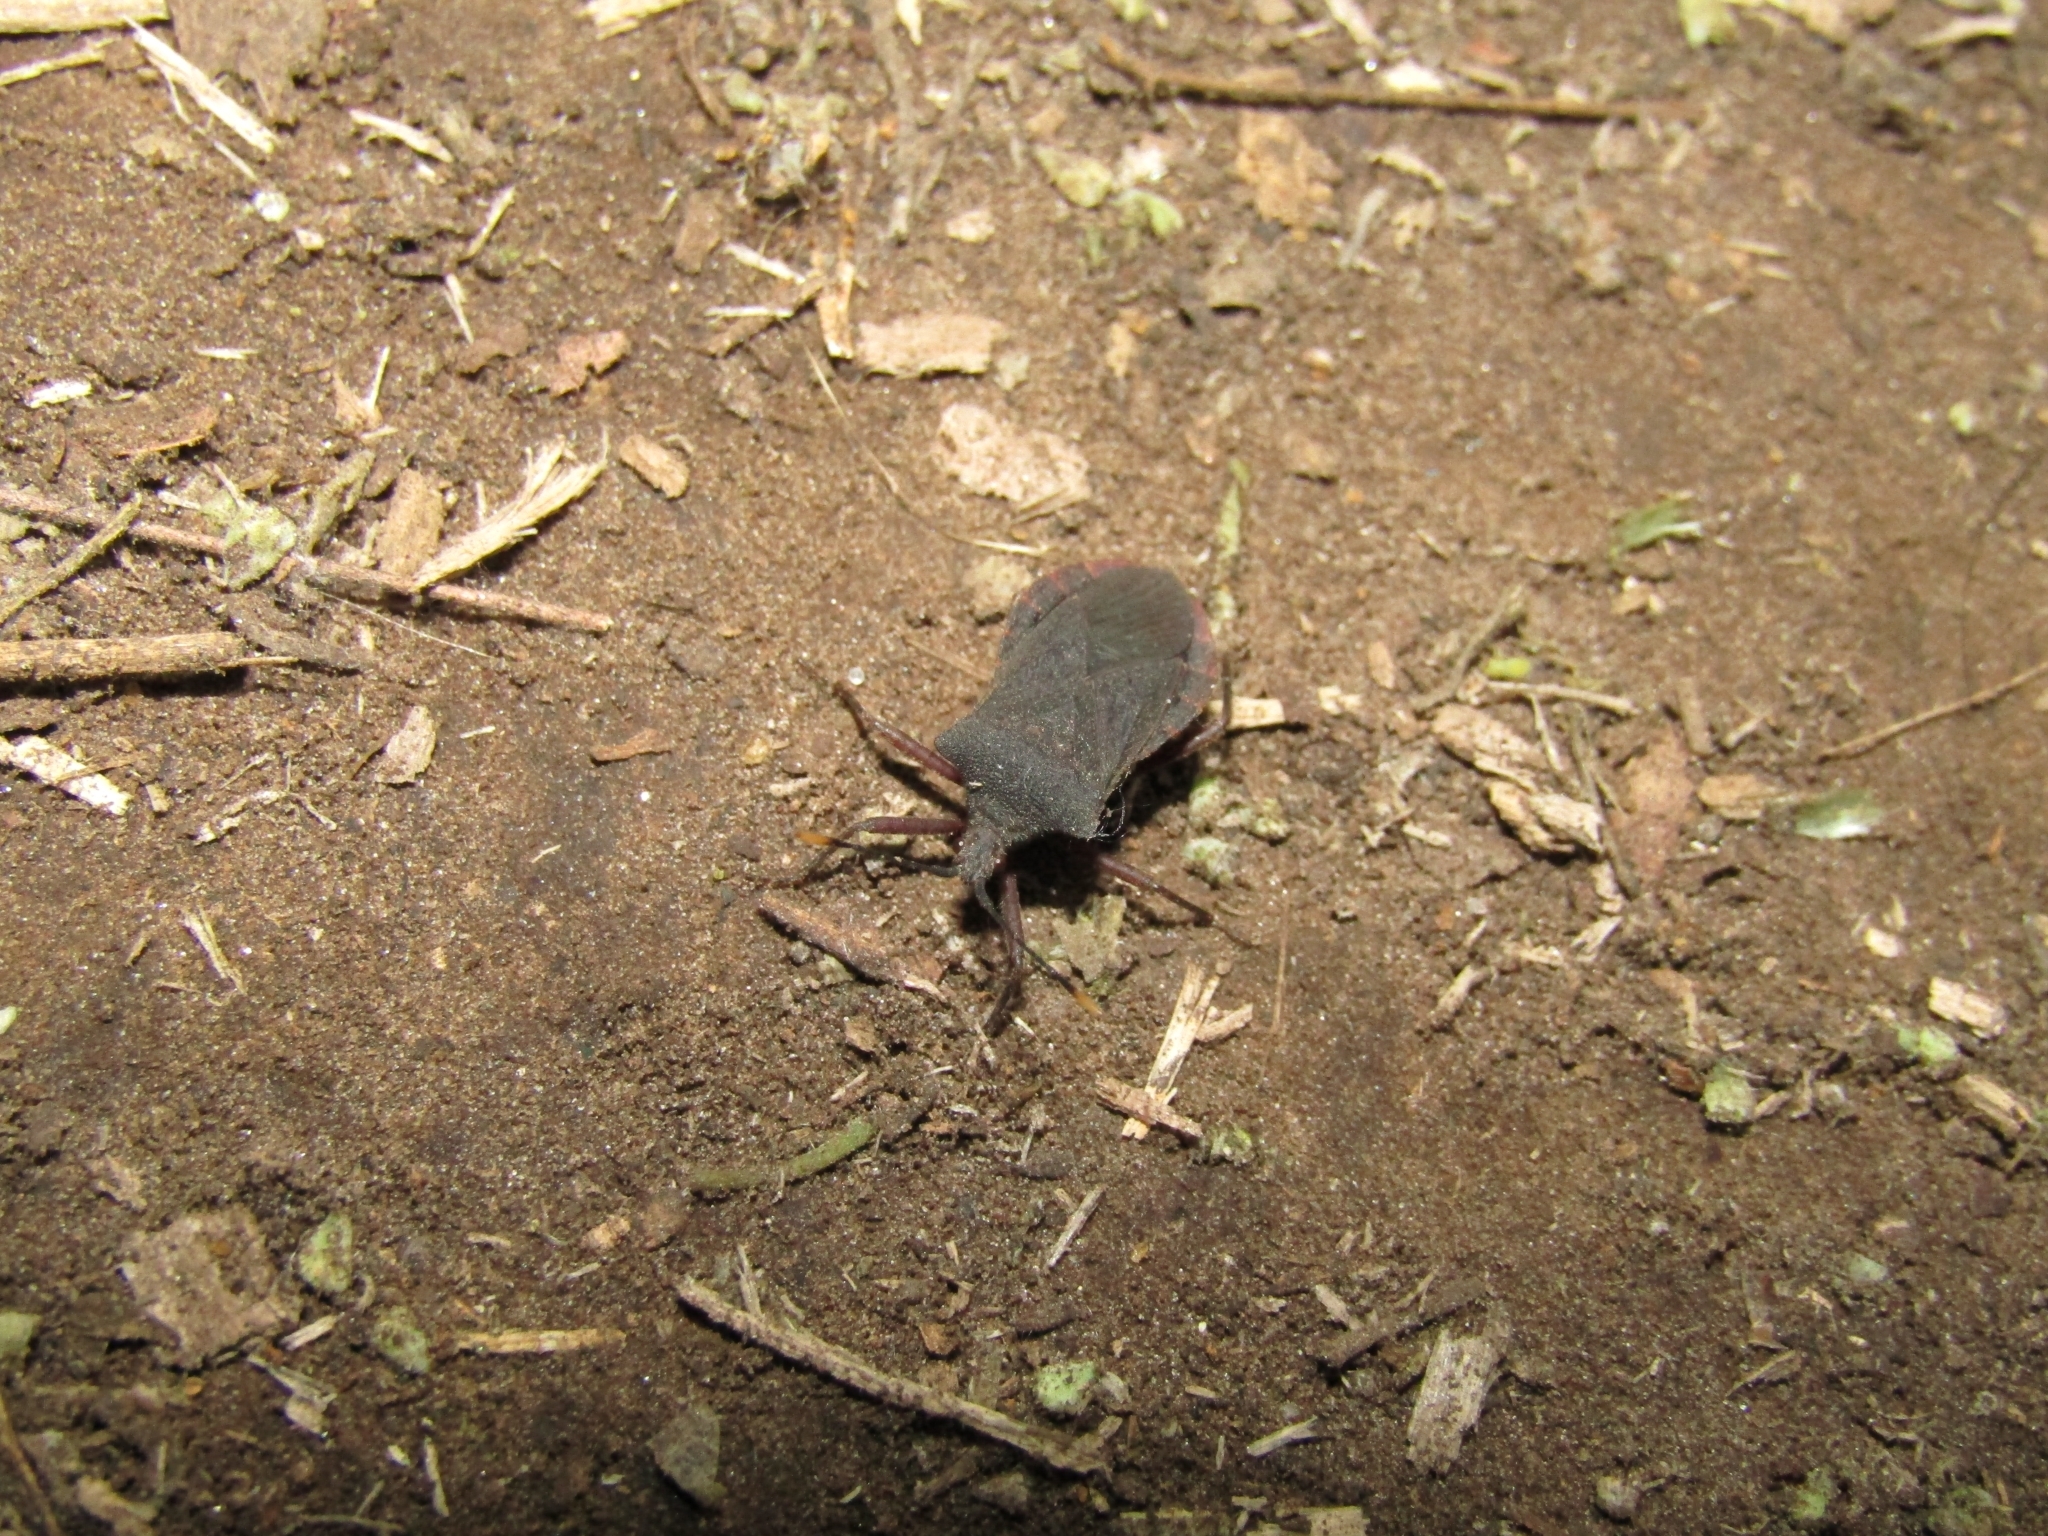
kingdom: Animalia
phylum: Arthropoda
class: Insecta
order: Hemiptera
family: Coreidae
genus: Anasa
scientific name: Anasa apicalis
